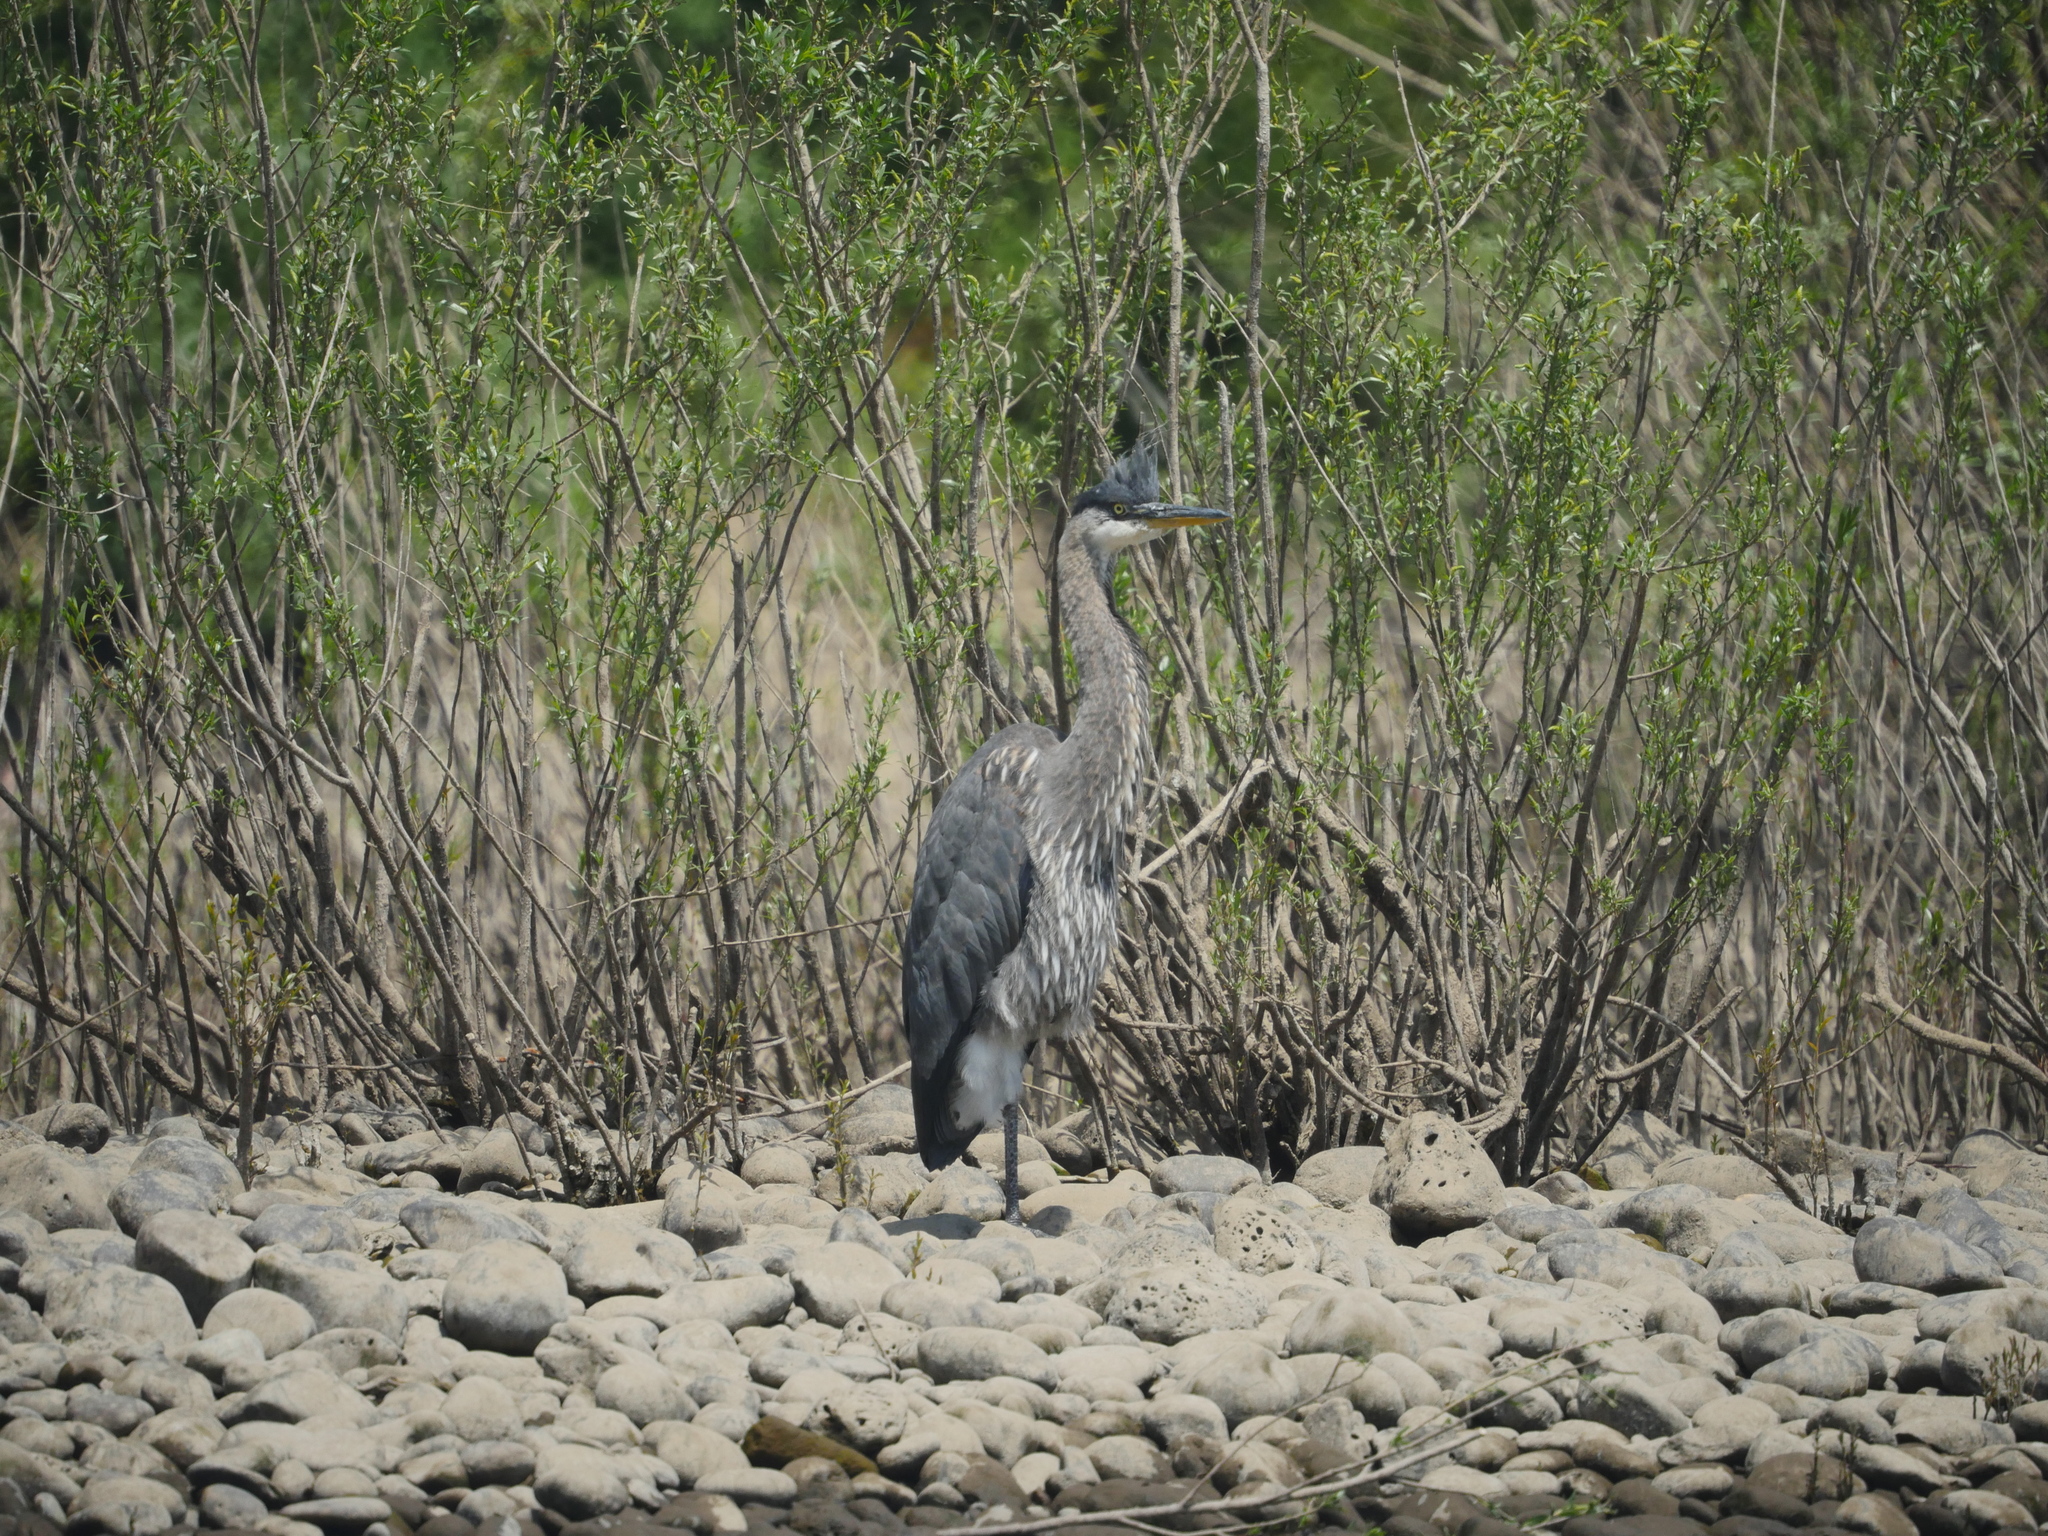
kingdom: Animalia
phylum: Chordata
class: Aves
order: Pelecaniformes
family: Ardeidae
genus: Ardea
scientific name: Ardea herodias
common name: Great blue heron
